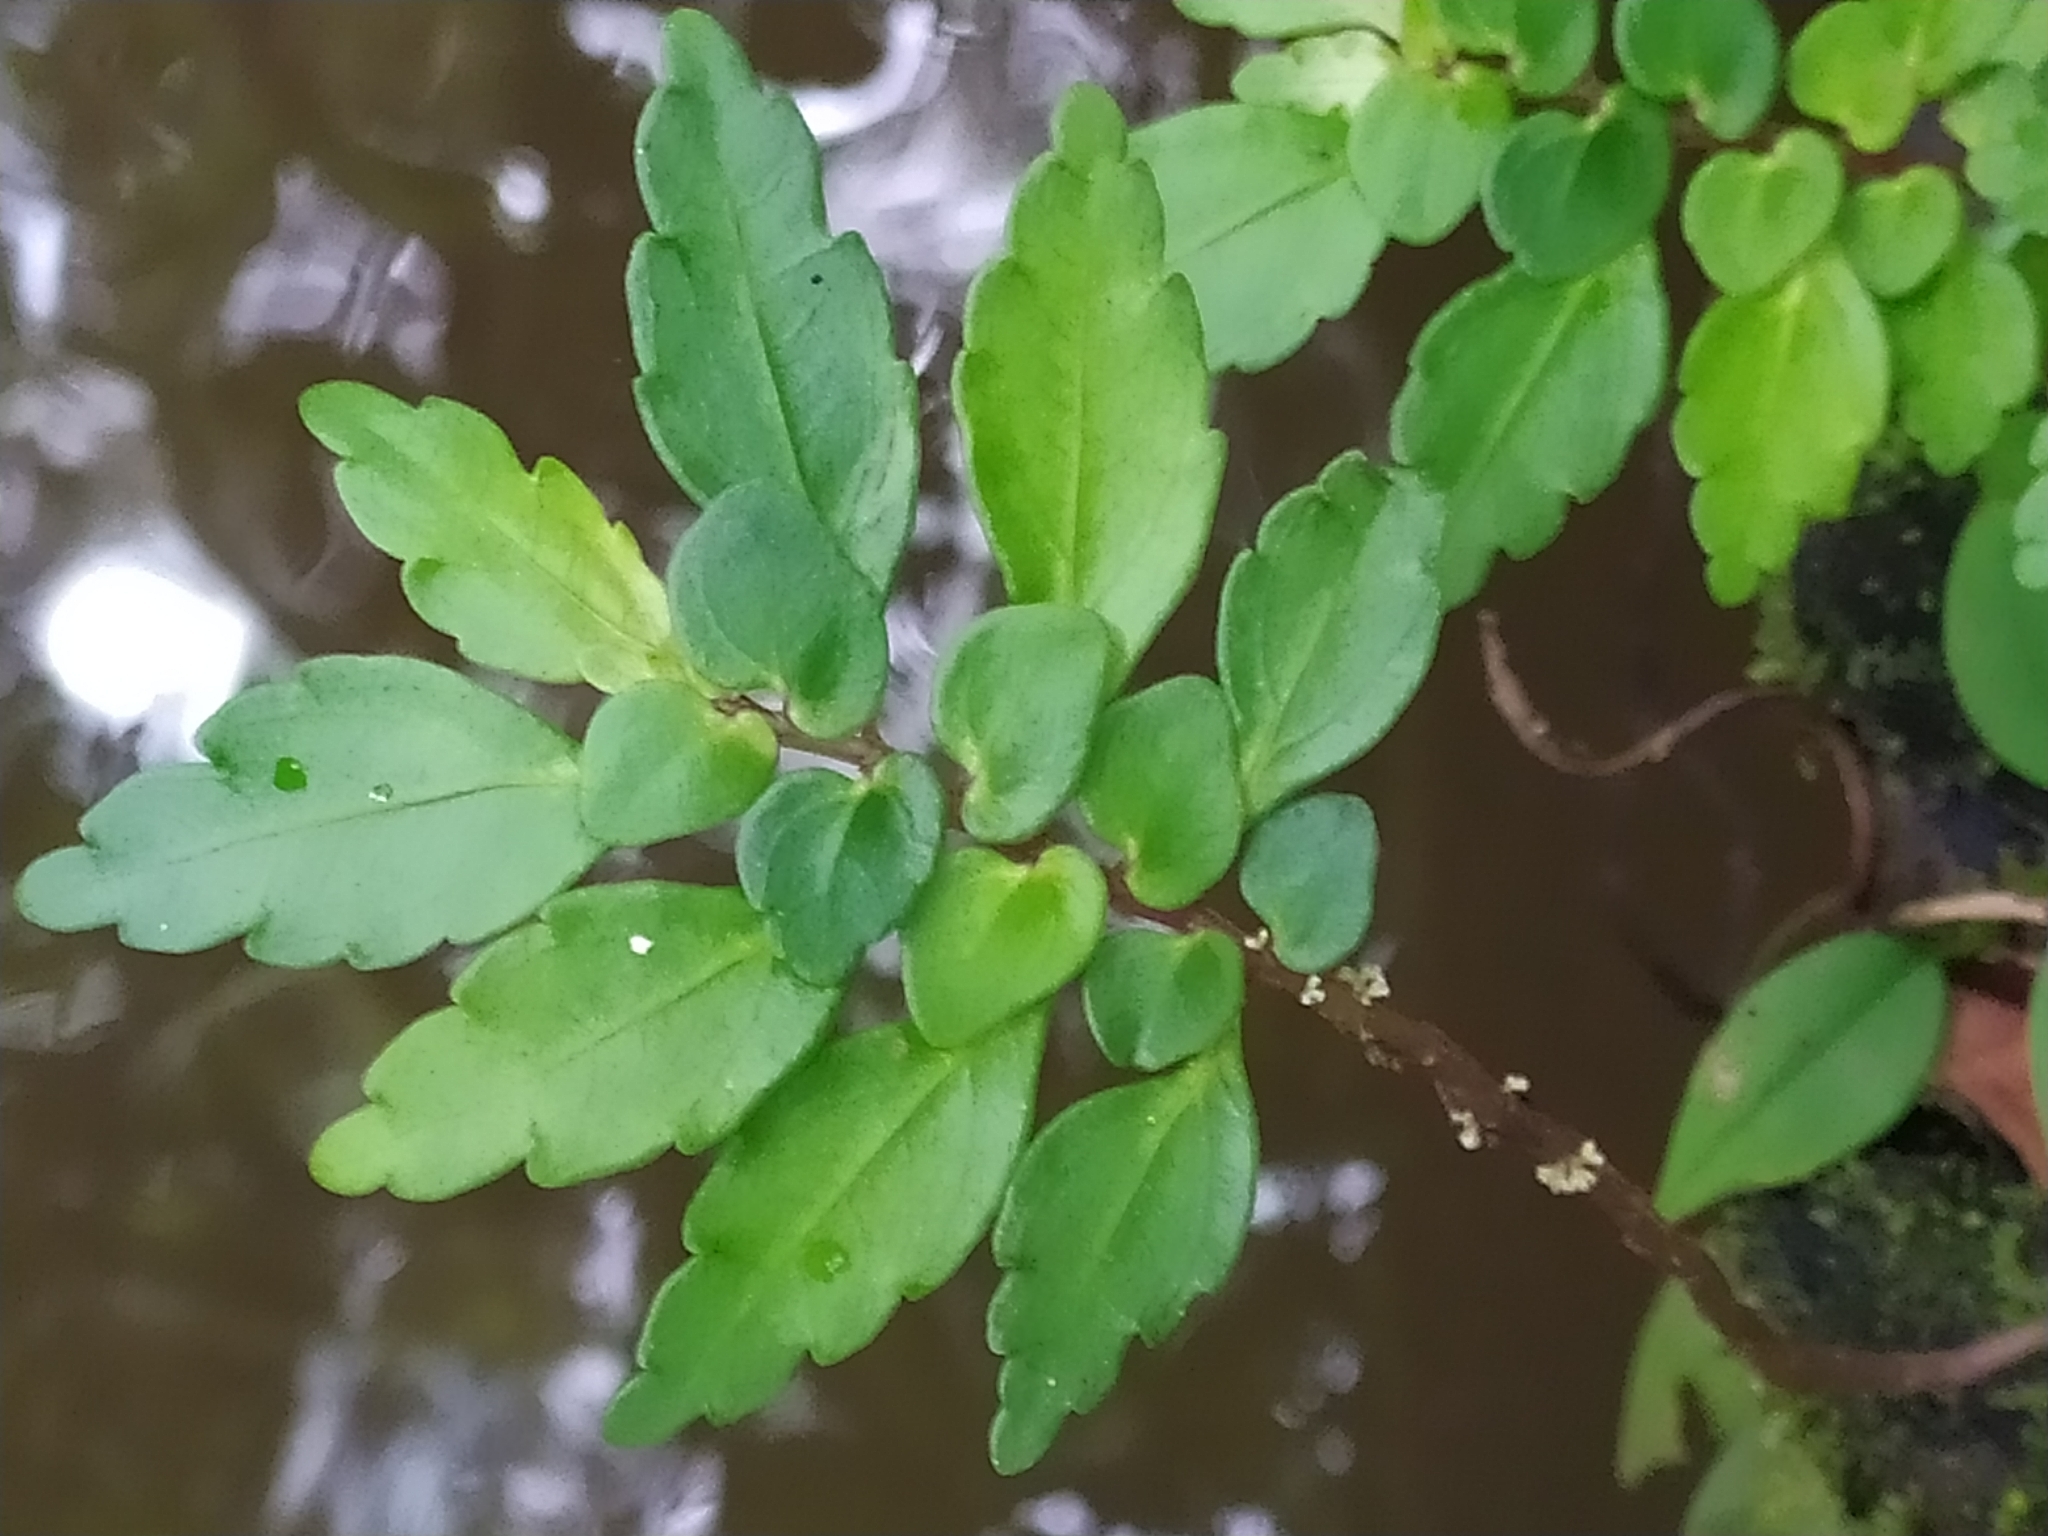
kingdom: Plantae
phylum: Tracheophyta
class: Magnoliopsida
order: Rosales
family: Urticaceae
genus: Pilea
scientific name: Pilea imparifolia
